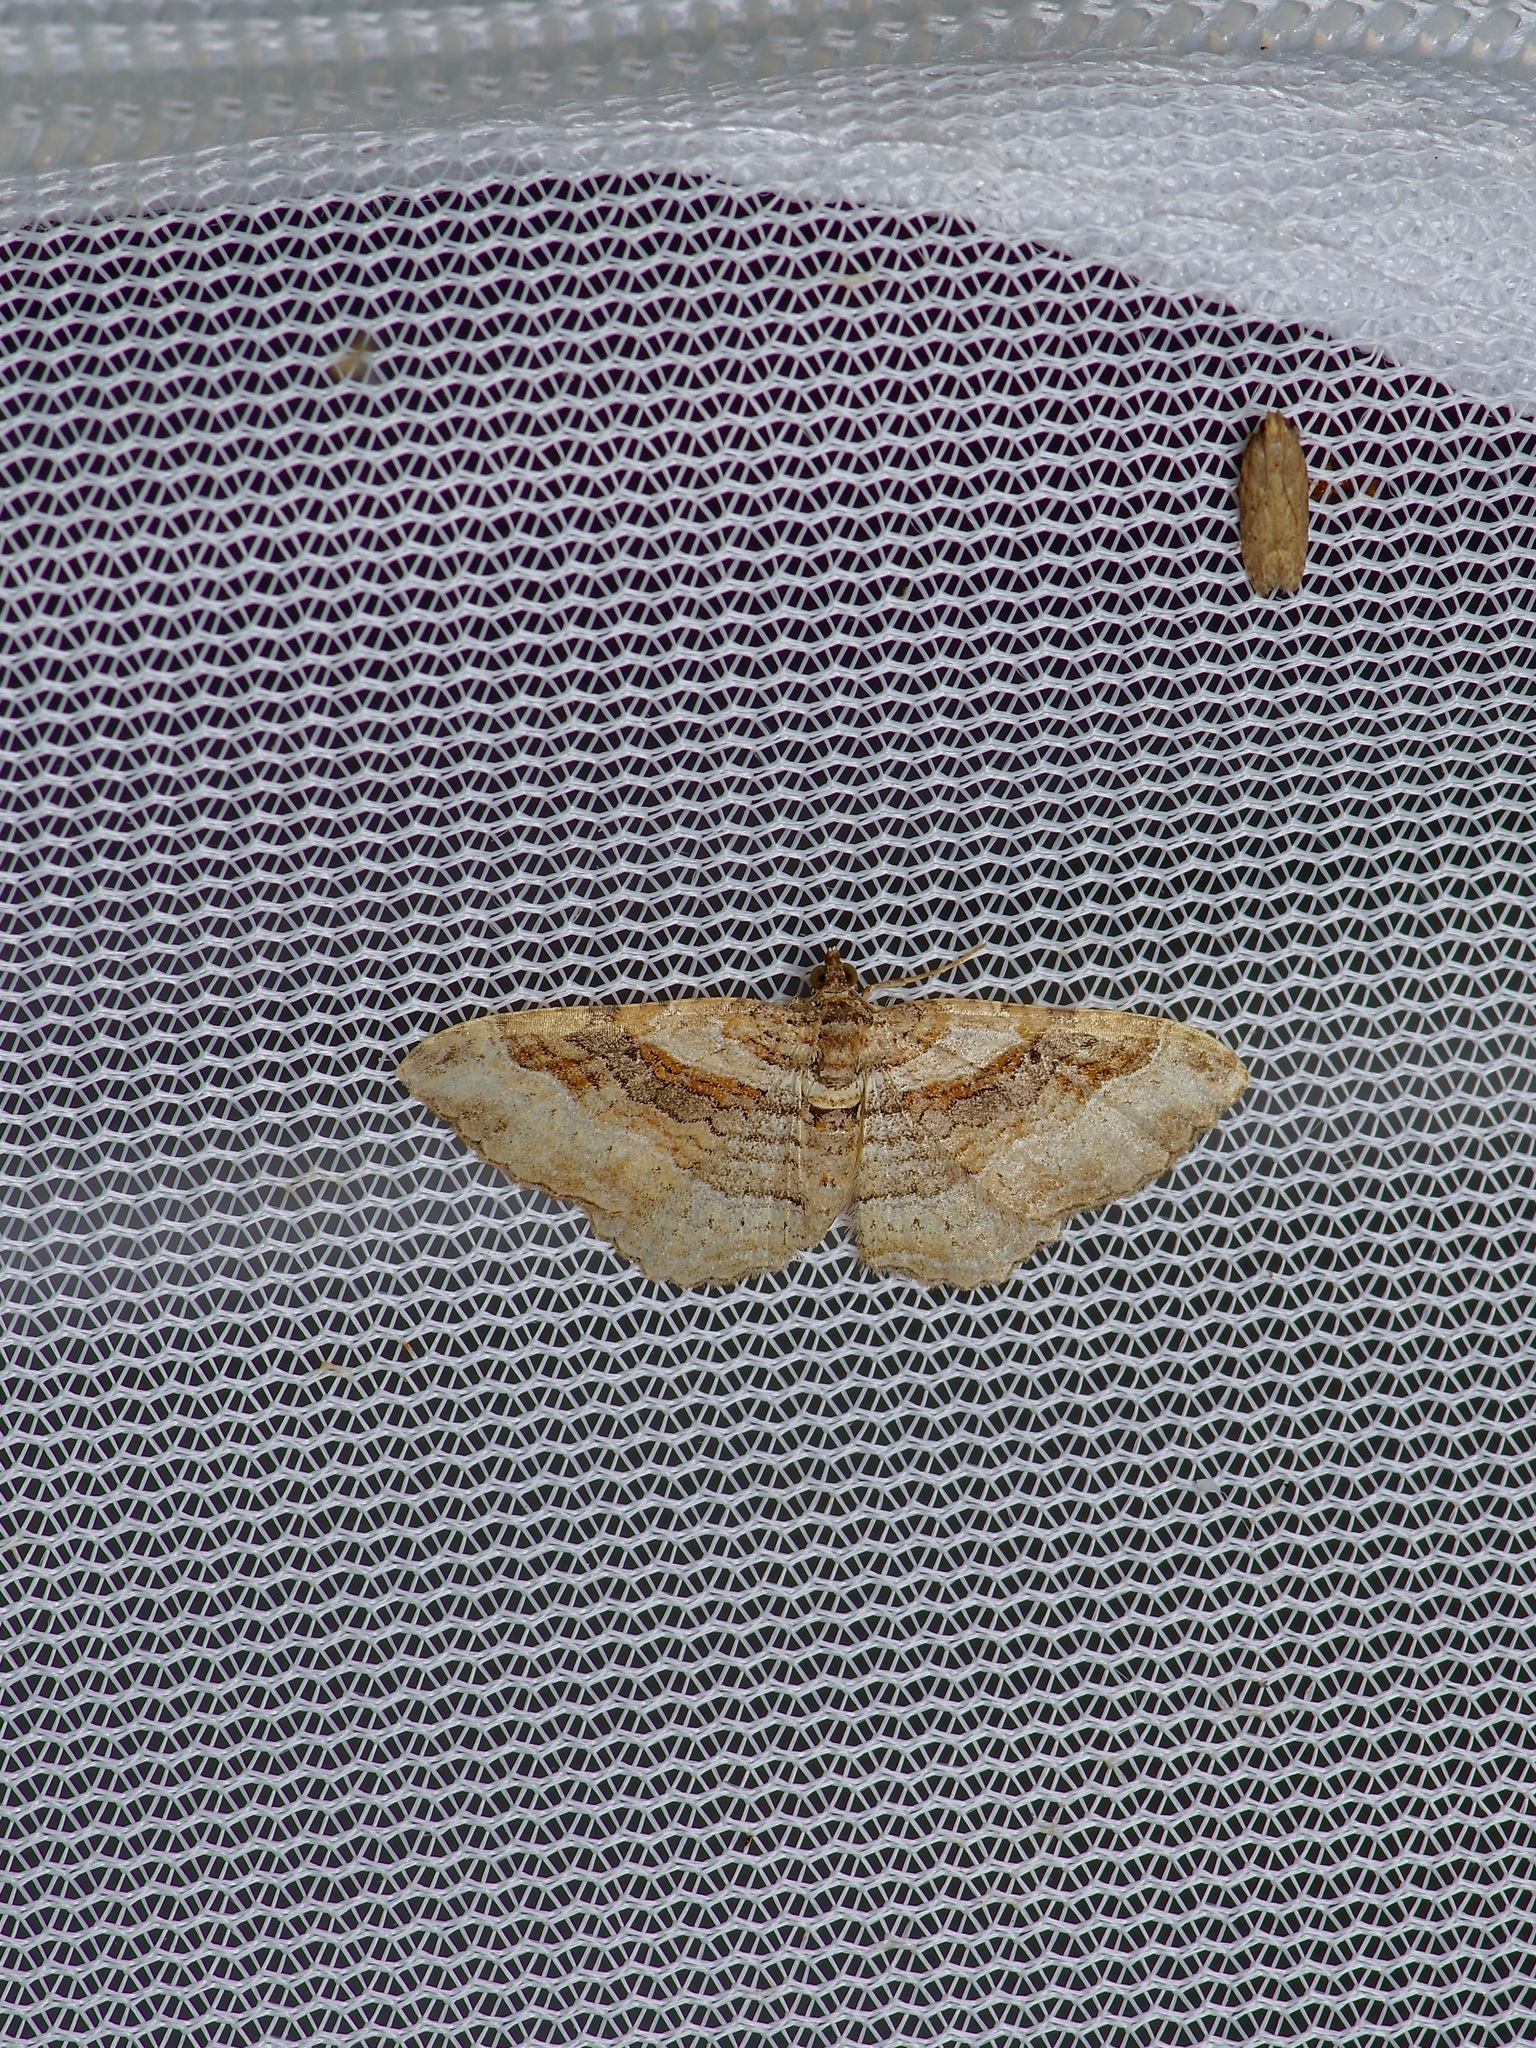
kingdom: Animalia
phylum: Arthropoda
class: Insecta
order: Lepidoptera
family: Geometridae
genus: Costaconvexa
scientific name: Costaconvexa centrostrigaria
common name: Bent-line carpet
